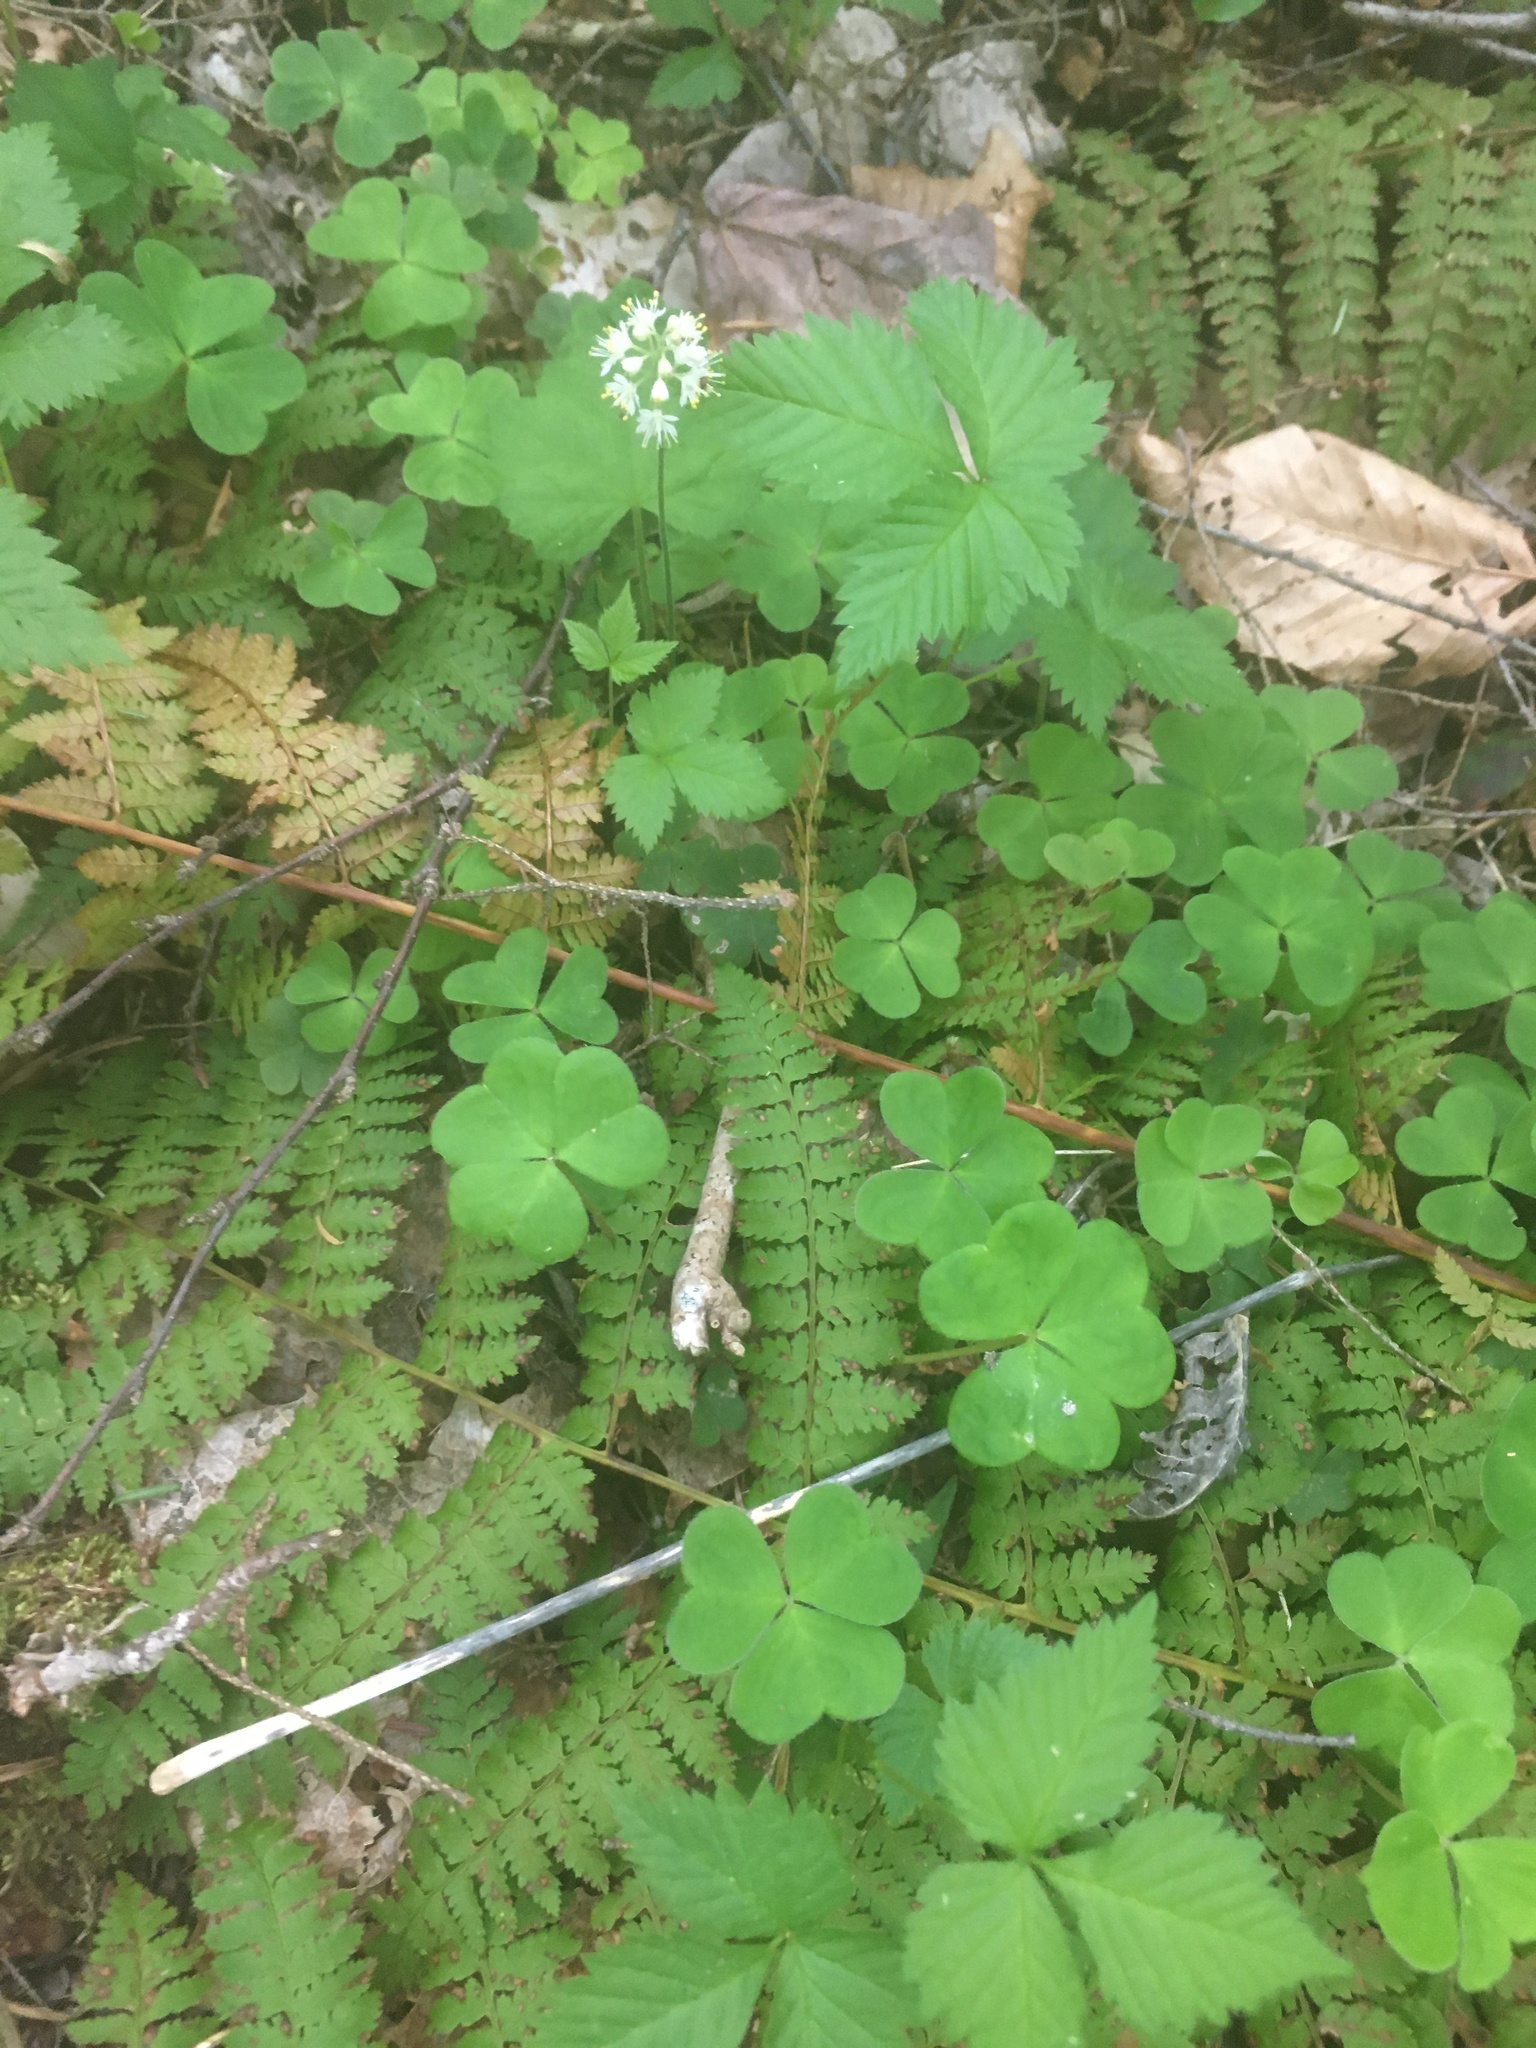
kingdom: Plantae
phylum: Tracheophyta
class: Magnoliopsida
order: Oxalidales
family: Oxalidaceae
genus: Oxalis
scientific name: Oxalis montana
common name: American wood-sorrel
